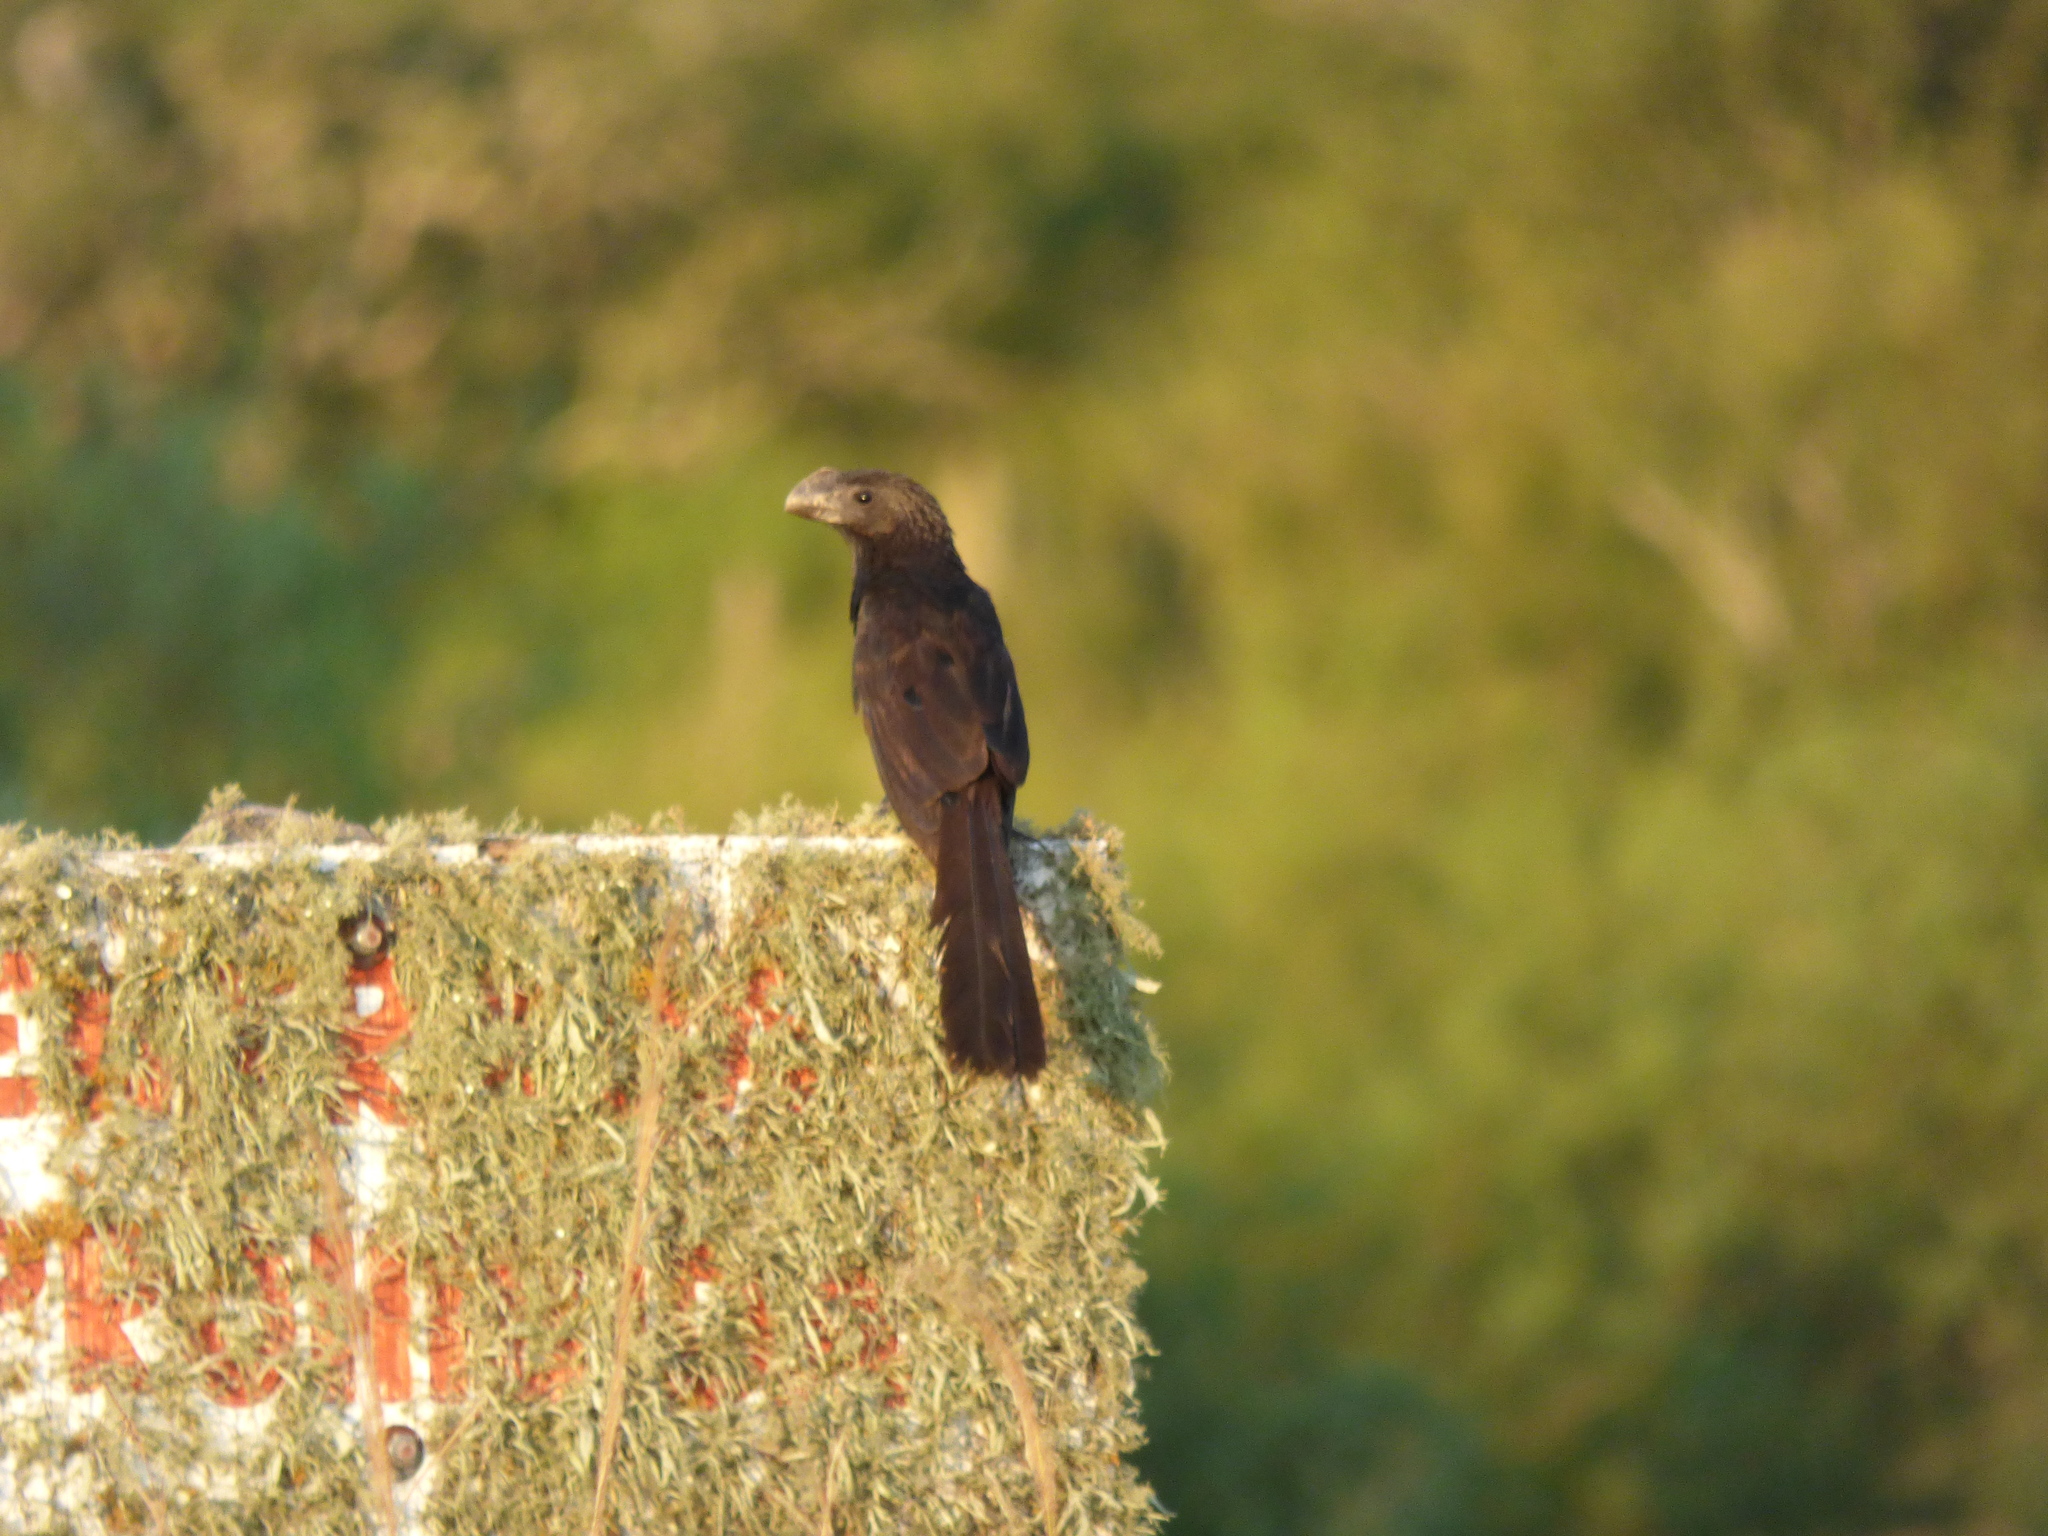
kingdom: Animalia
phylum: Chordata
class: Aves
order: Cuculiformes
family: Cuculidae
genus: Crotophaga
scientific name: Crotophaga ani
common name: Smooth-billed ani
